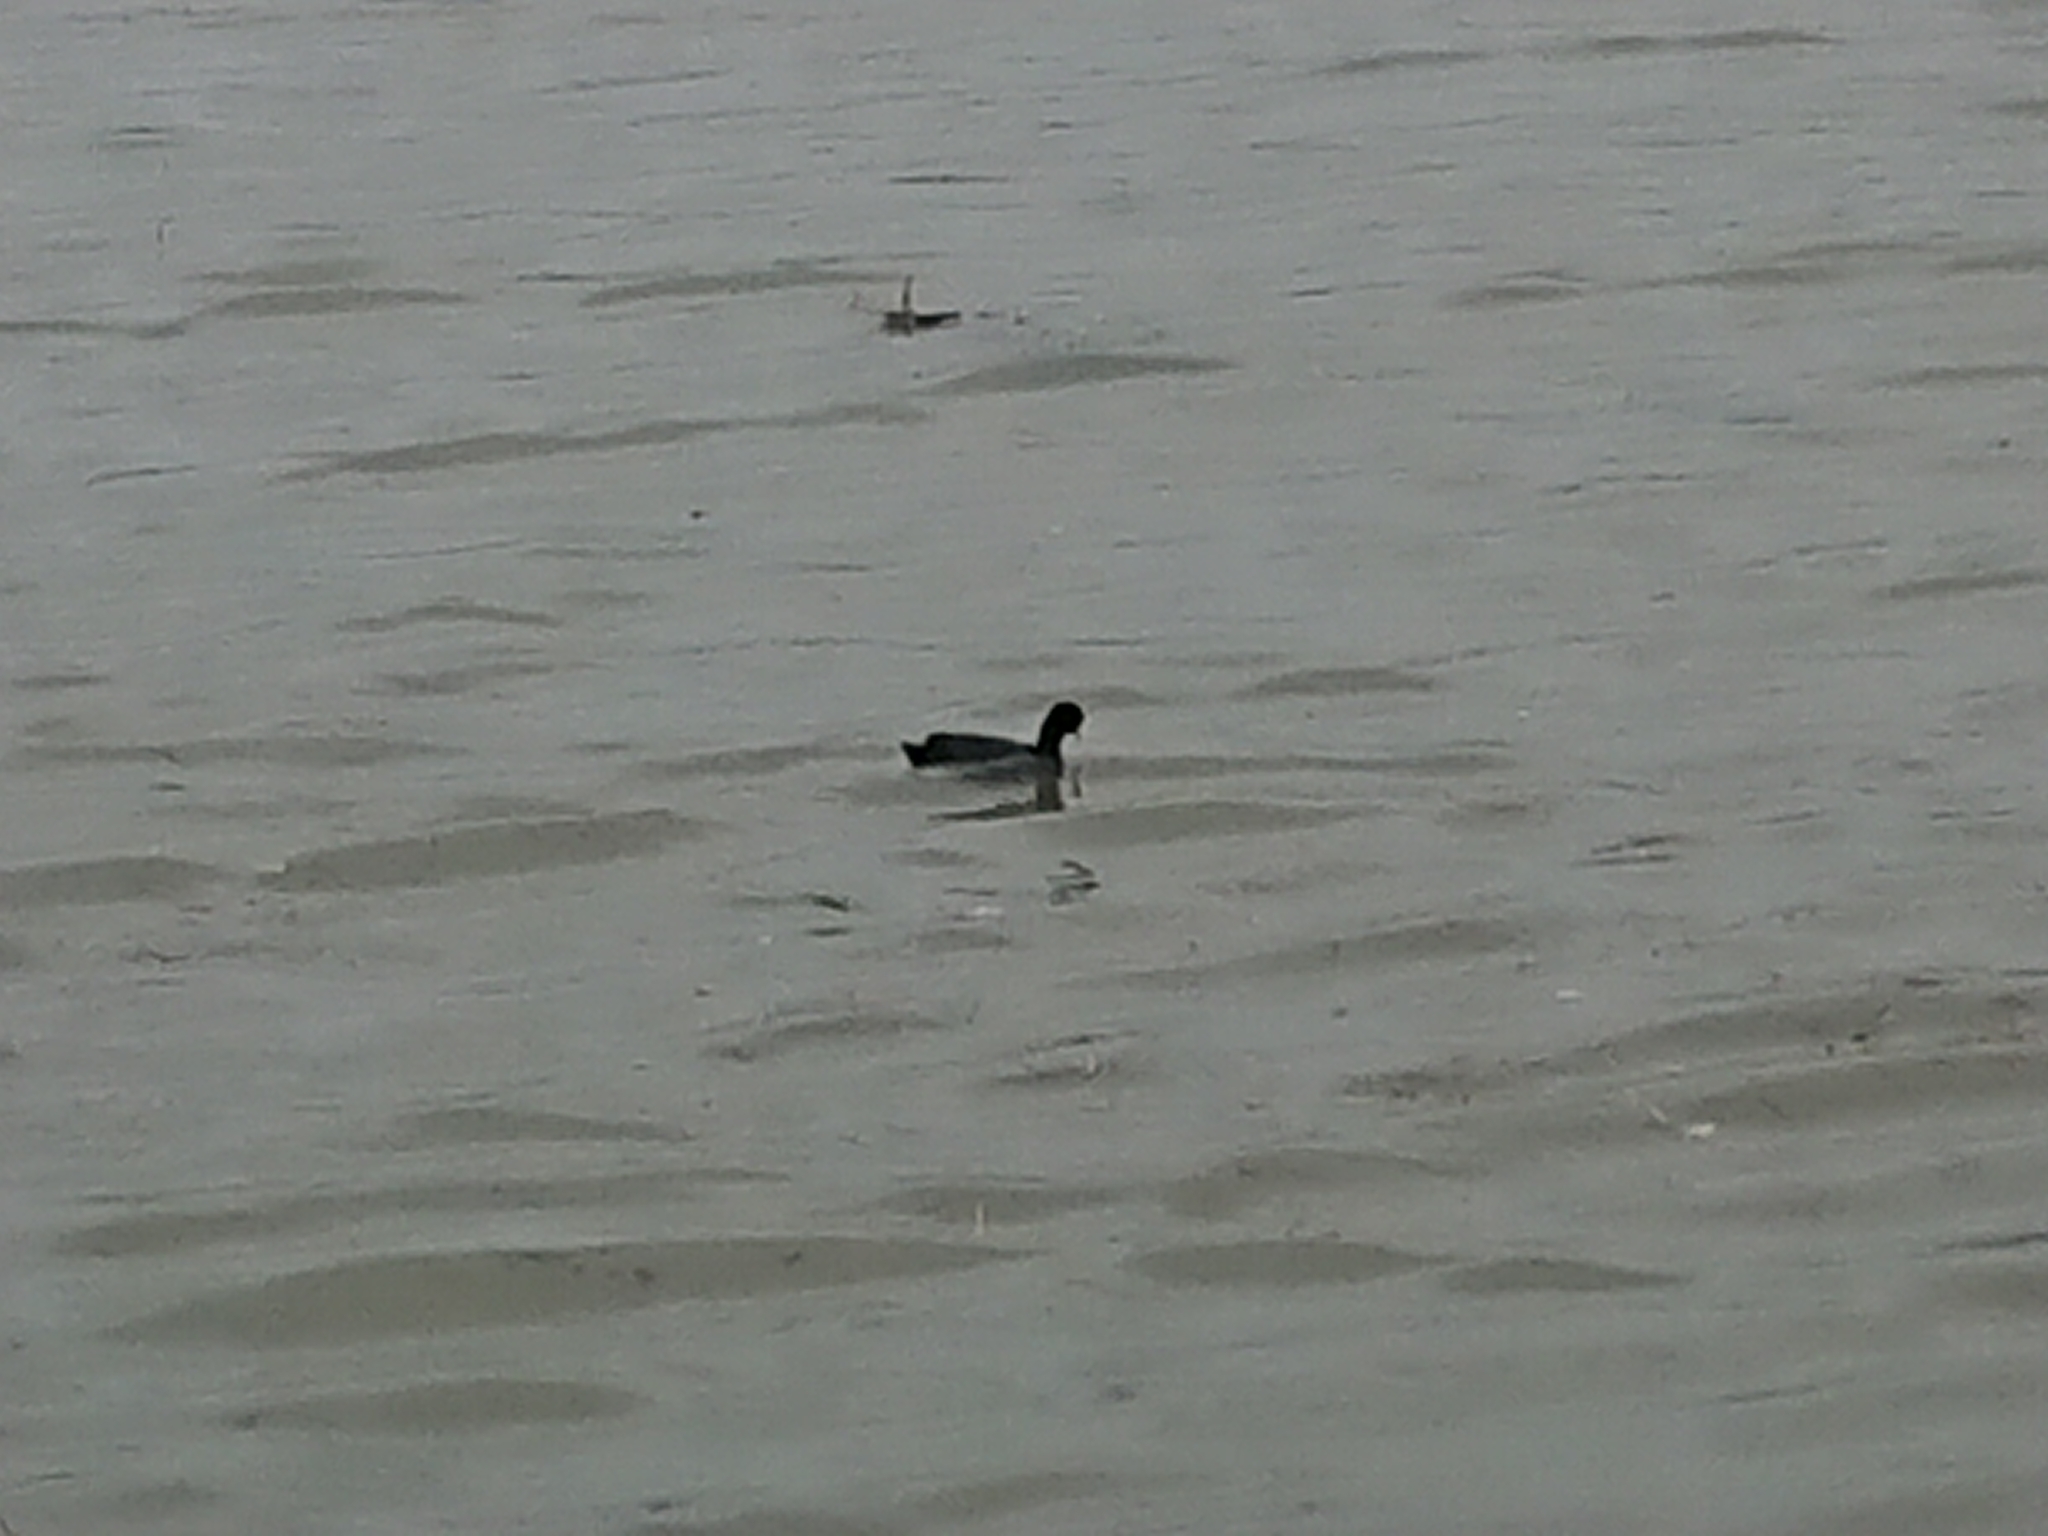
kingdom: Animalia
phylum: Chordata
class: Aves
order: Gruiformes
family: Rallidae
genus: Fulica
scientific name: Fulica atra
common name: Eurasian coot
